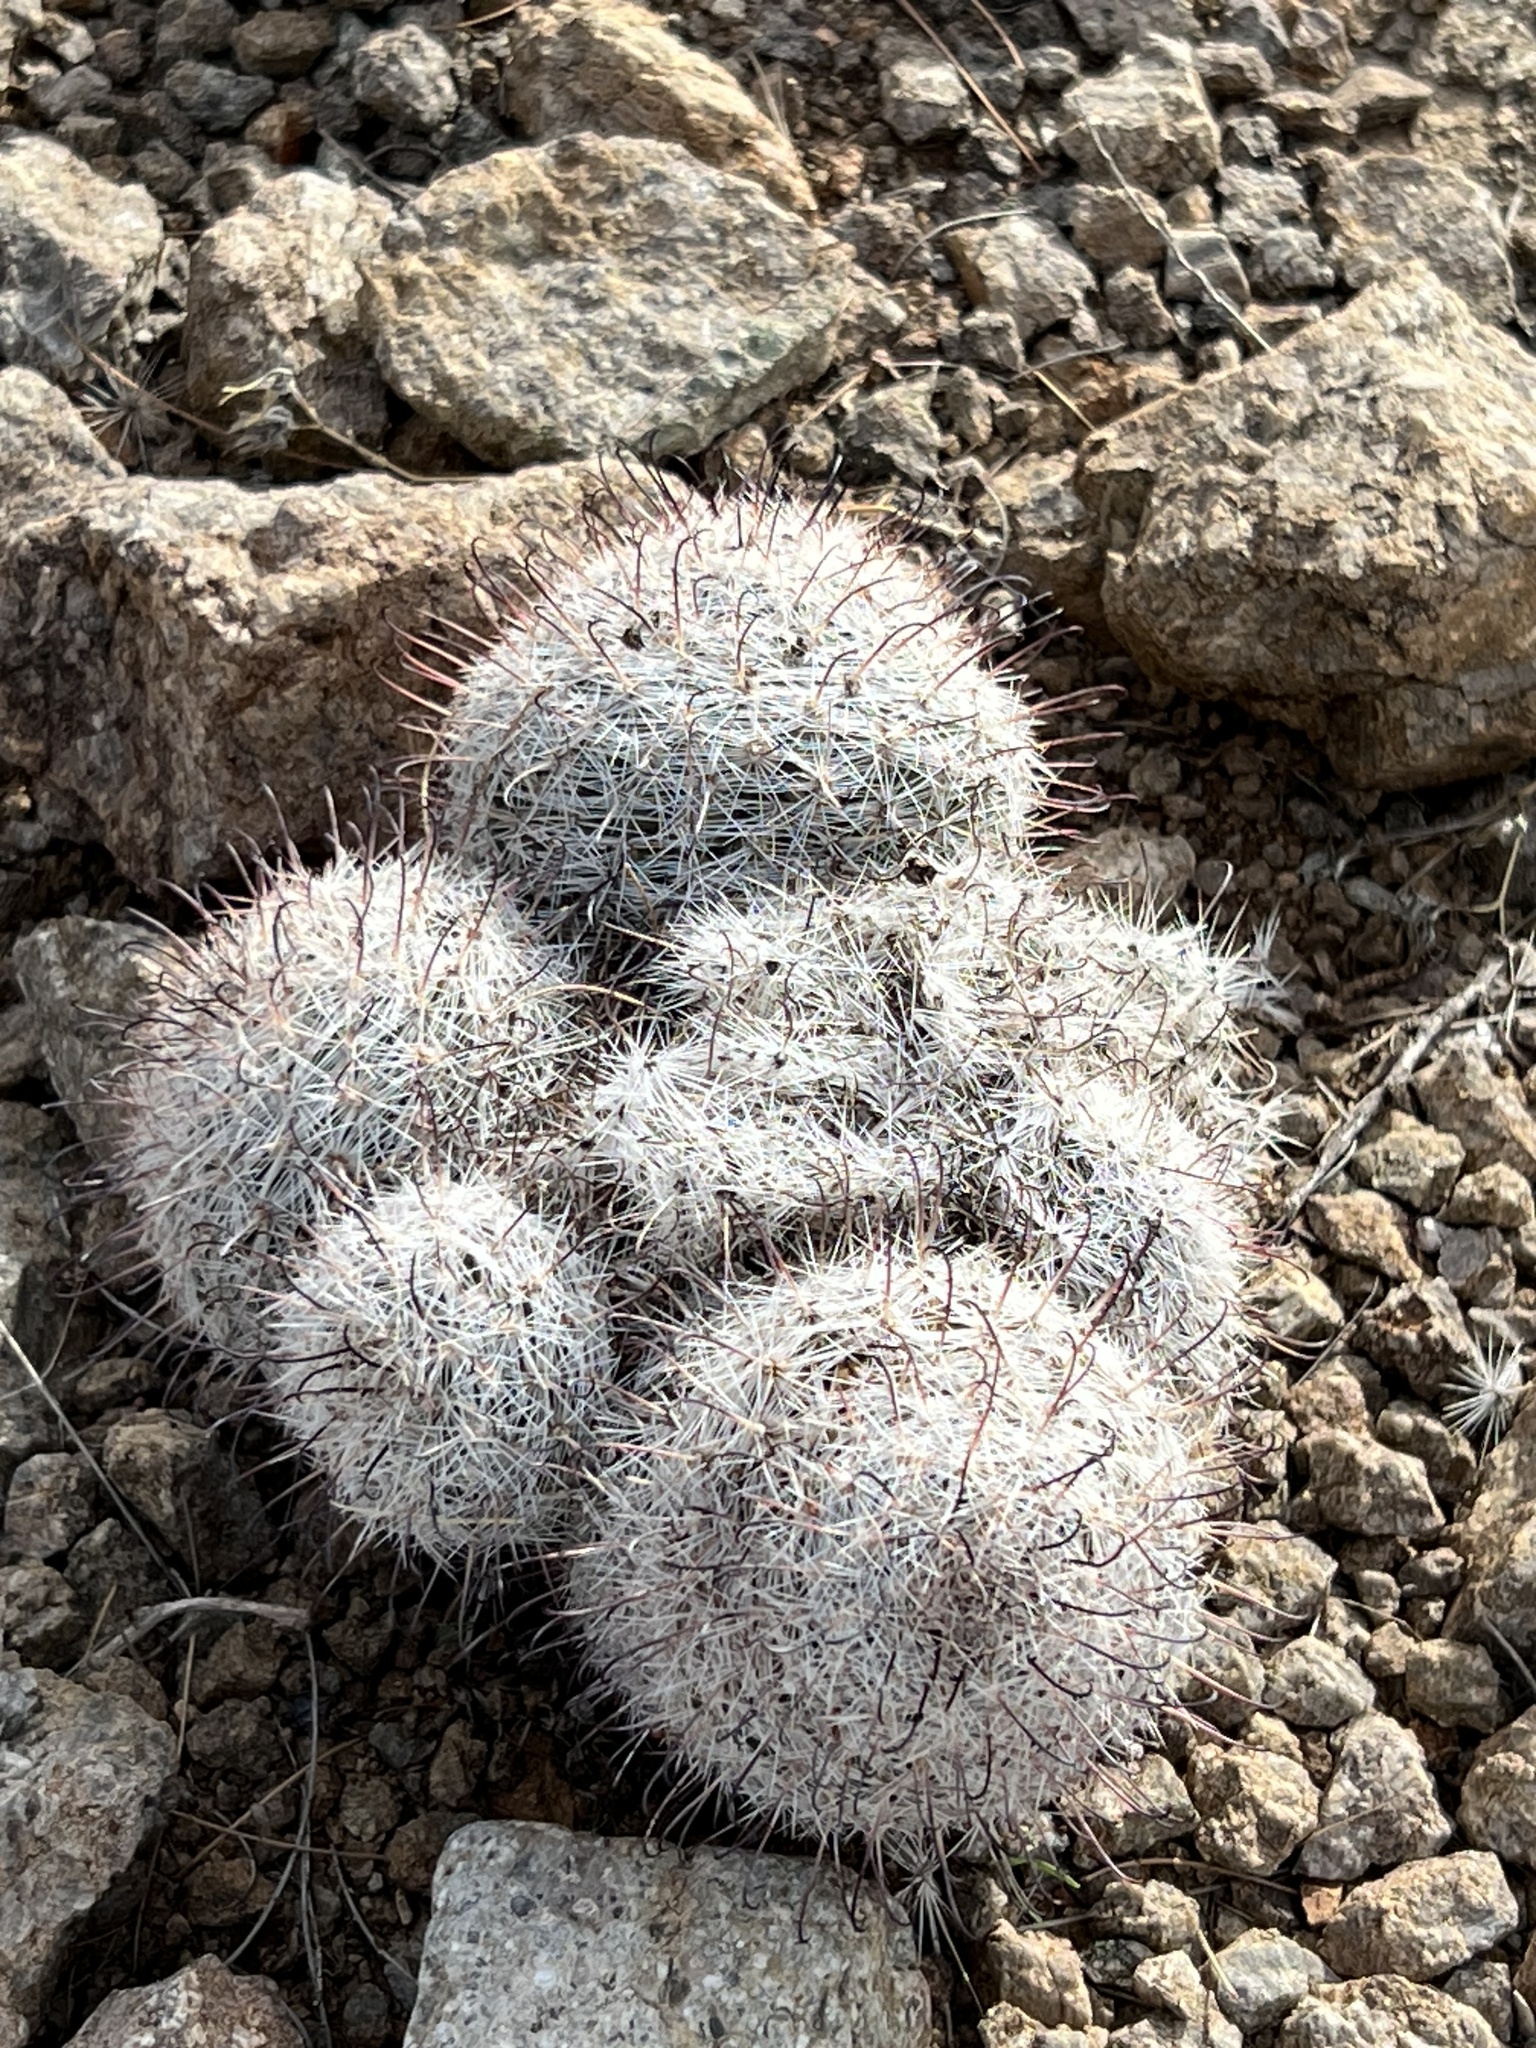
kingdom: Plantae
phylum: Tracheophyta
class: Magnoliopsida
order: Caryophyllales
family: Cactaceae
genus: Cochemiea
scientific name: Cochemiea grahamii
